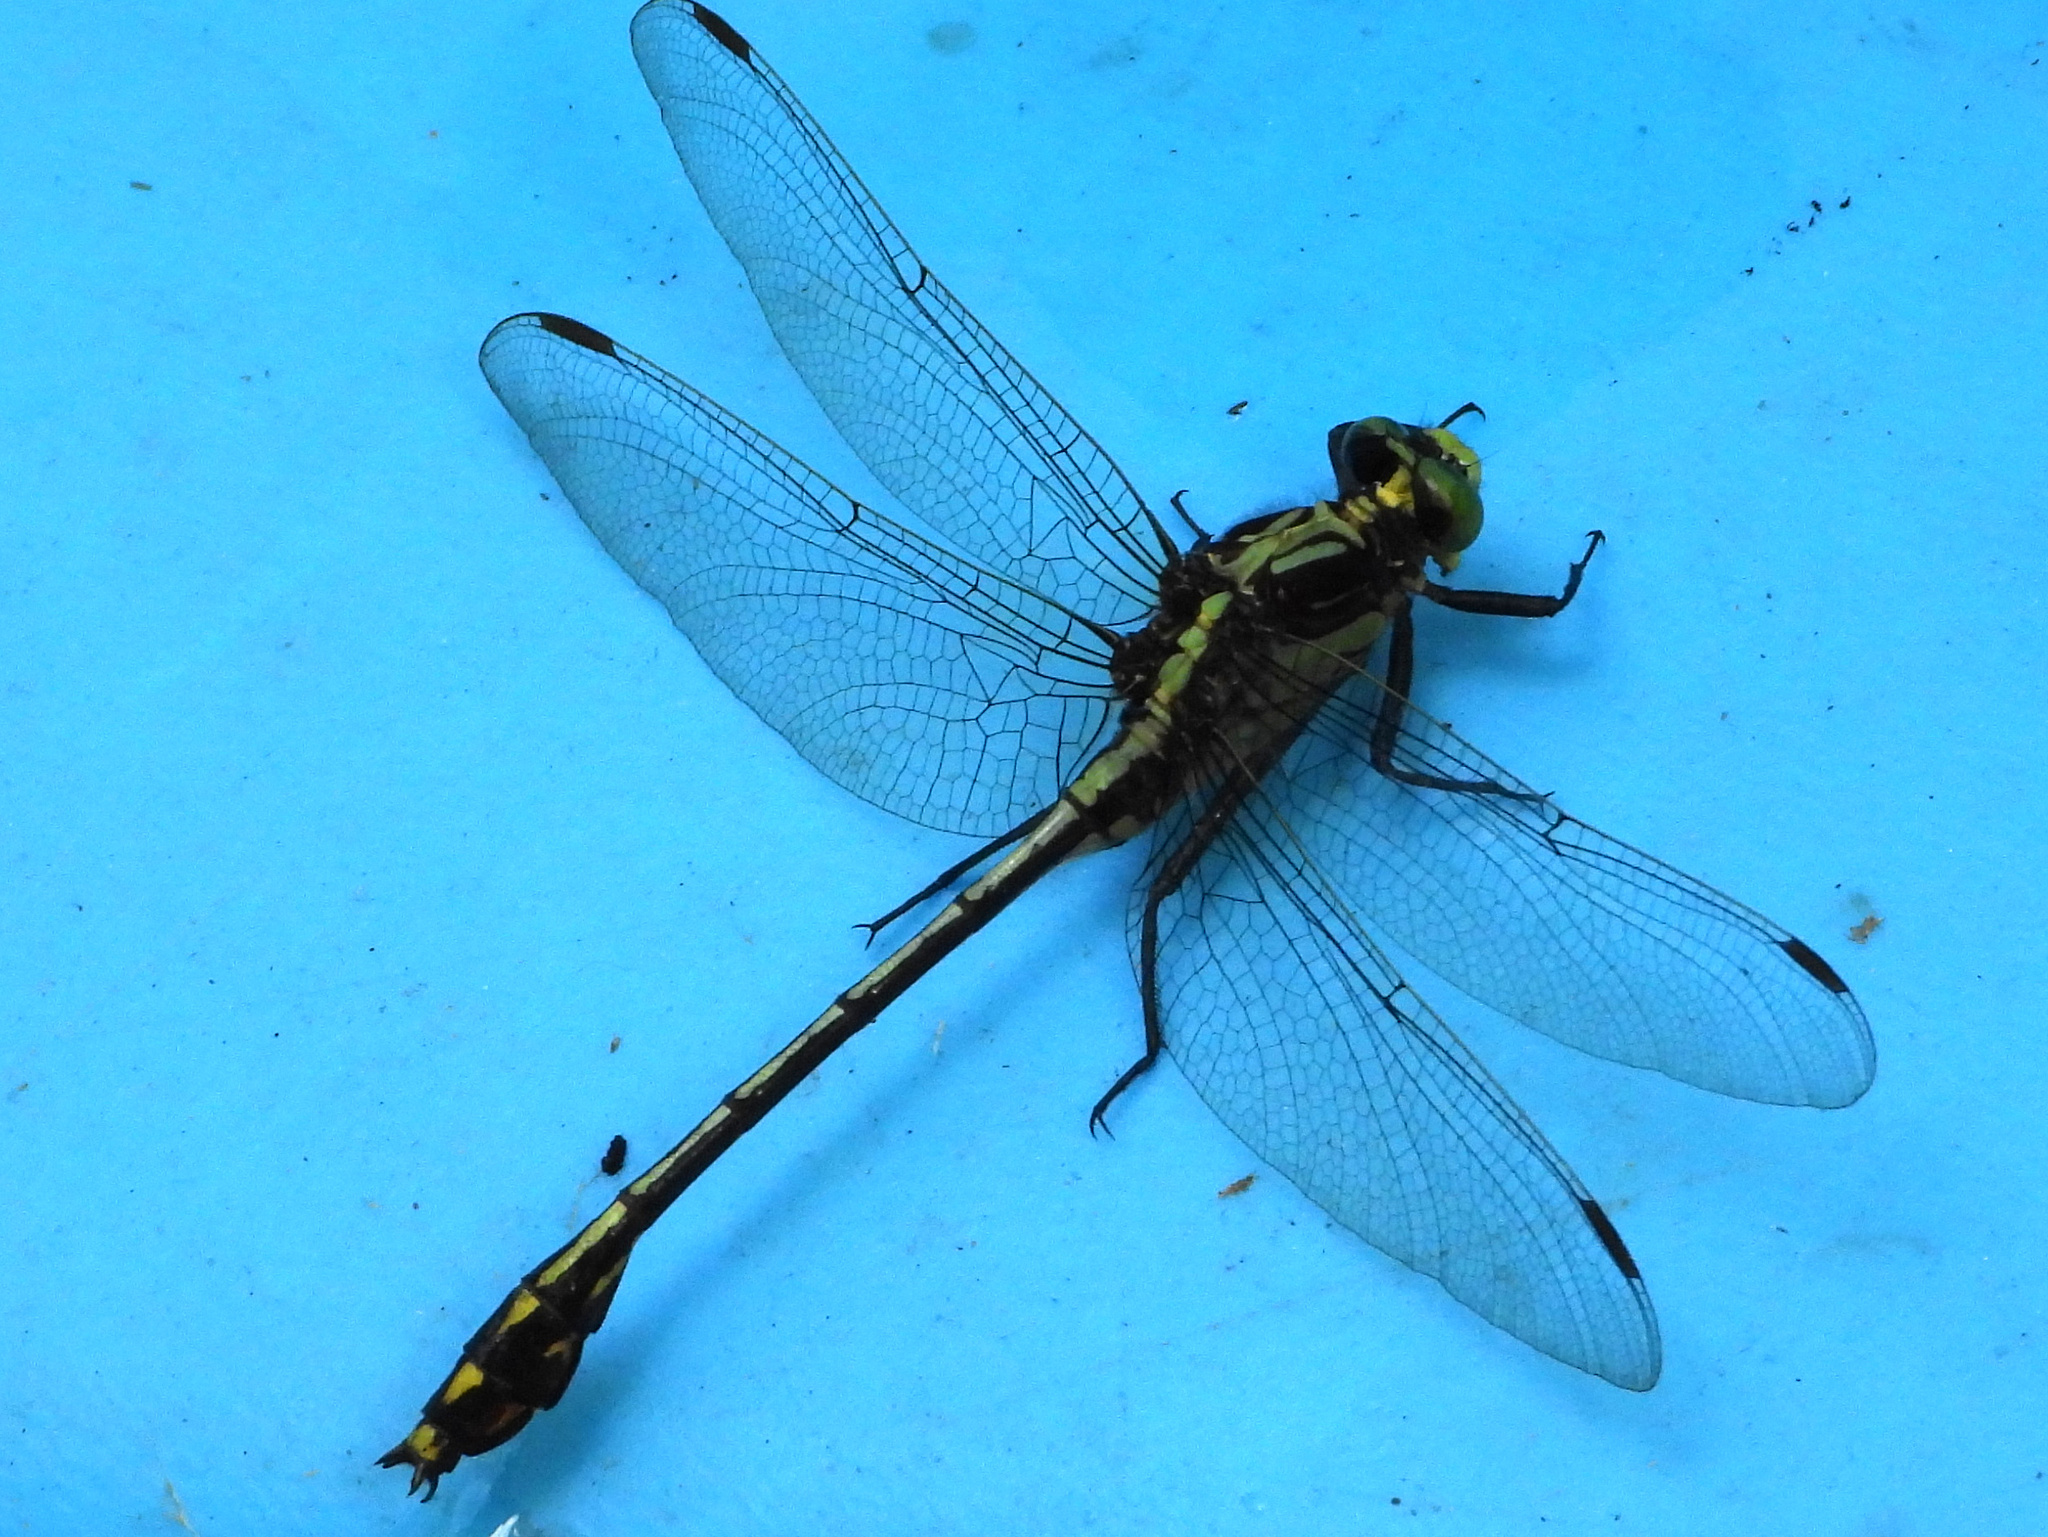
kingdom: Animalia
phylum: Arthropoda
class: Insecta
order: Odonata
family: Gomphidae
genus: Dromogomphus
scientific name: Dromogomphus spinosus
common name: Black-shouldered spinyleg
